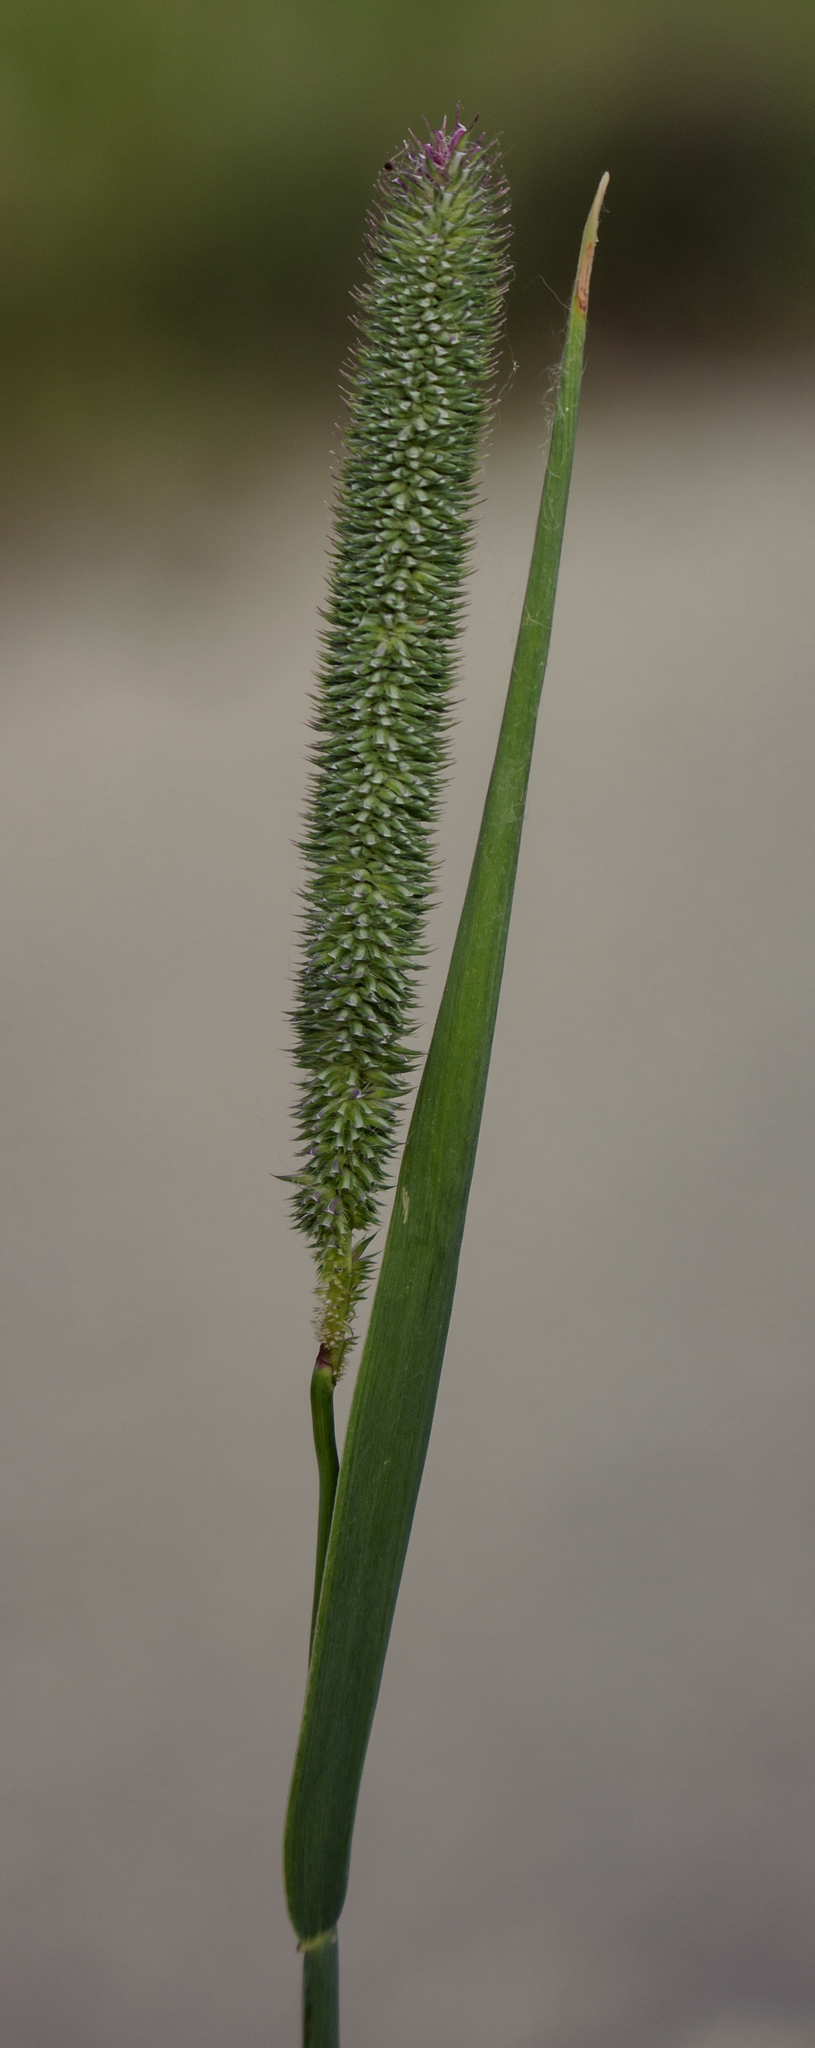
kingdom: Plantae
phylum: Tracheophyta
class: Liliopsida
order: Poales
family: Poaceae
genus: Phleum
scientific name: Phleum pratense
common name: Timothy grass
